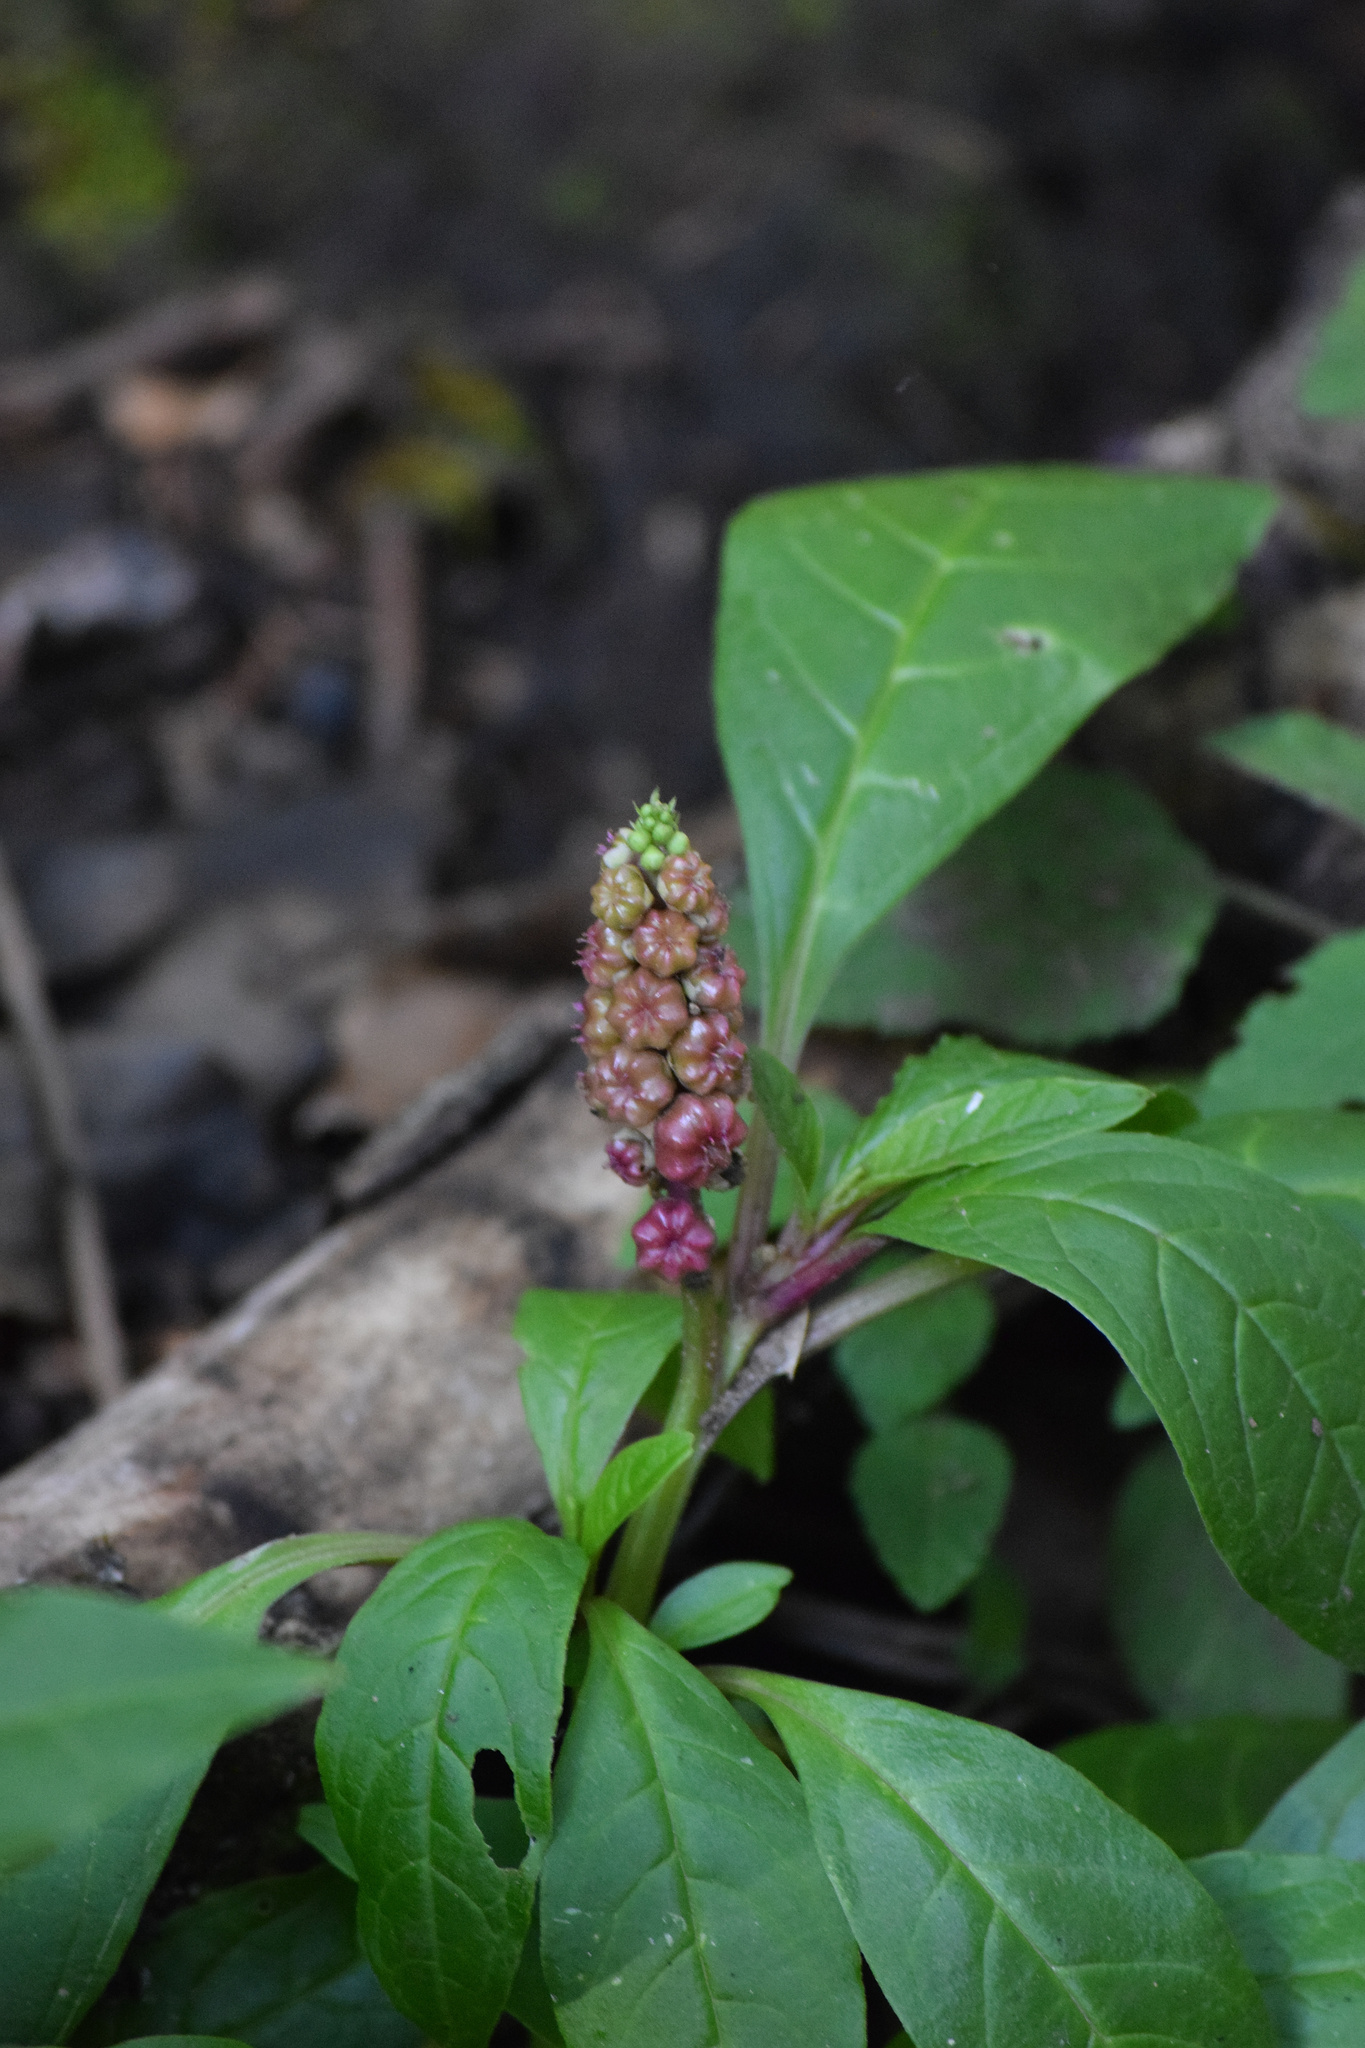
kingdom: Plantae
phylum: Tracheophyta
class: Magnoliopsida
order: Caryophyllales
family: Phytolaccaceae
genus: Phytolacca
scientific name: Phytolacca icosandra
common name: Button pokeweed
